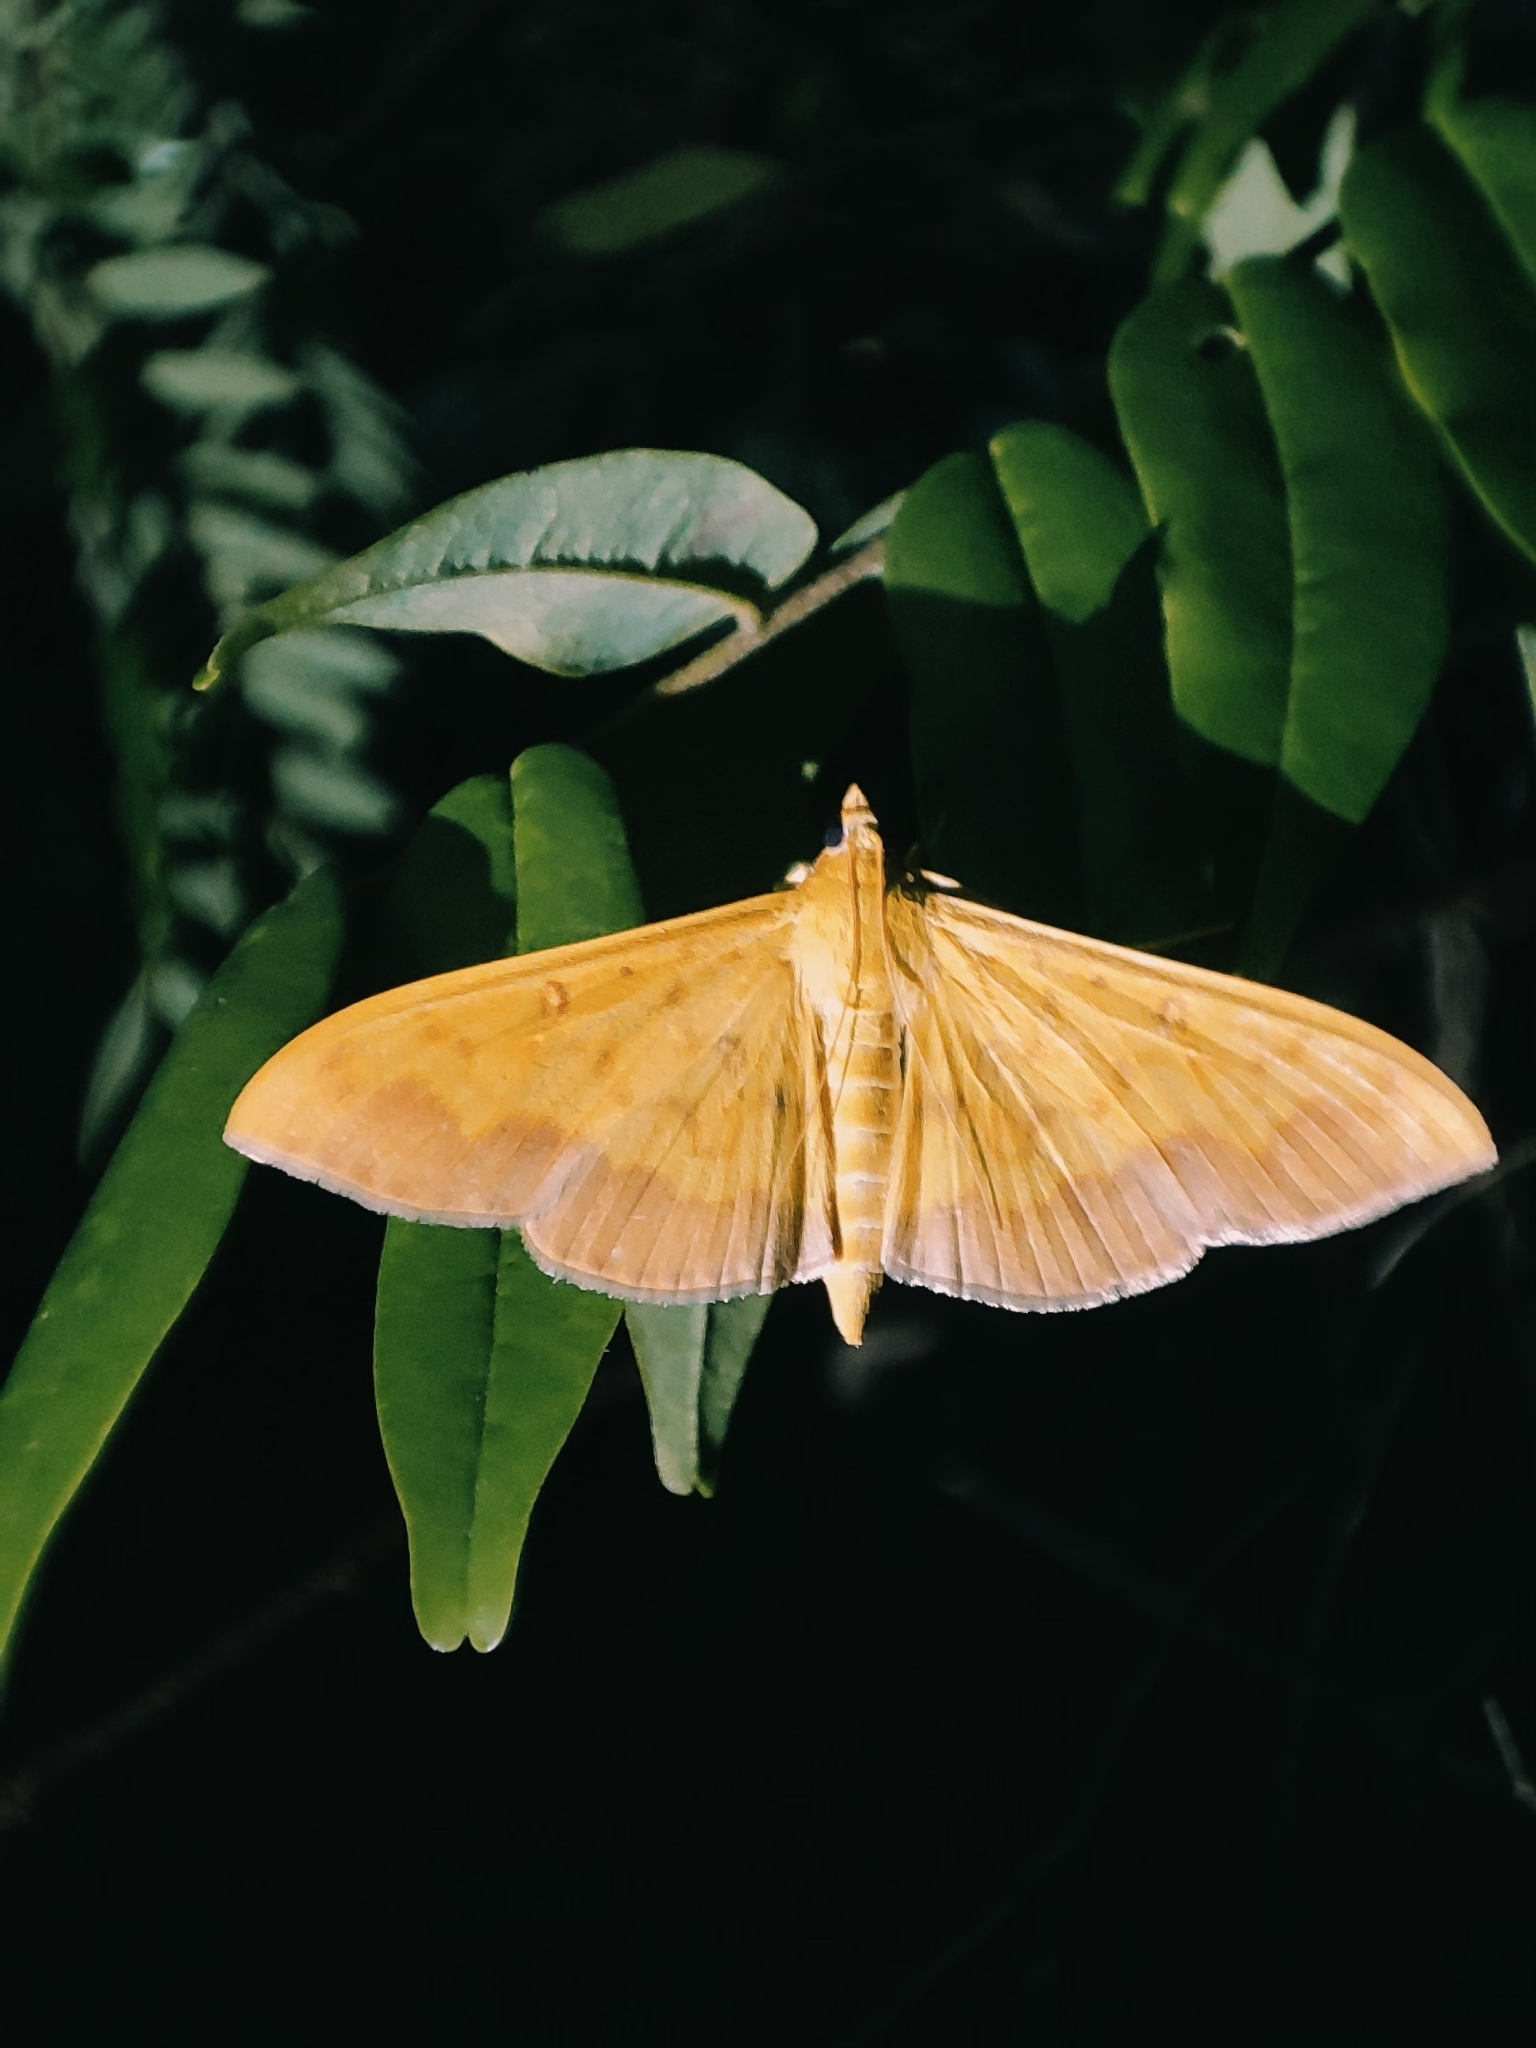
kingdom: Animalia
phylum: Arthropoda
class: Insecta
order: Lepidoptera
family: Crambidae
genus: Botyodes
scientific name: Botyodes asialis
